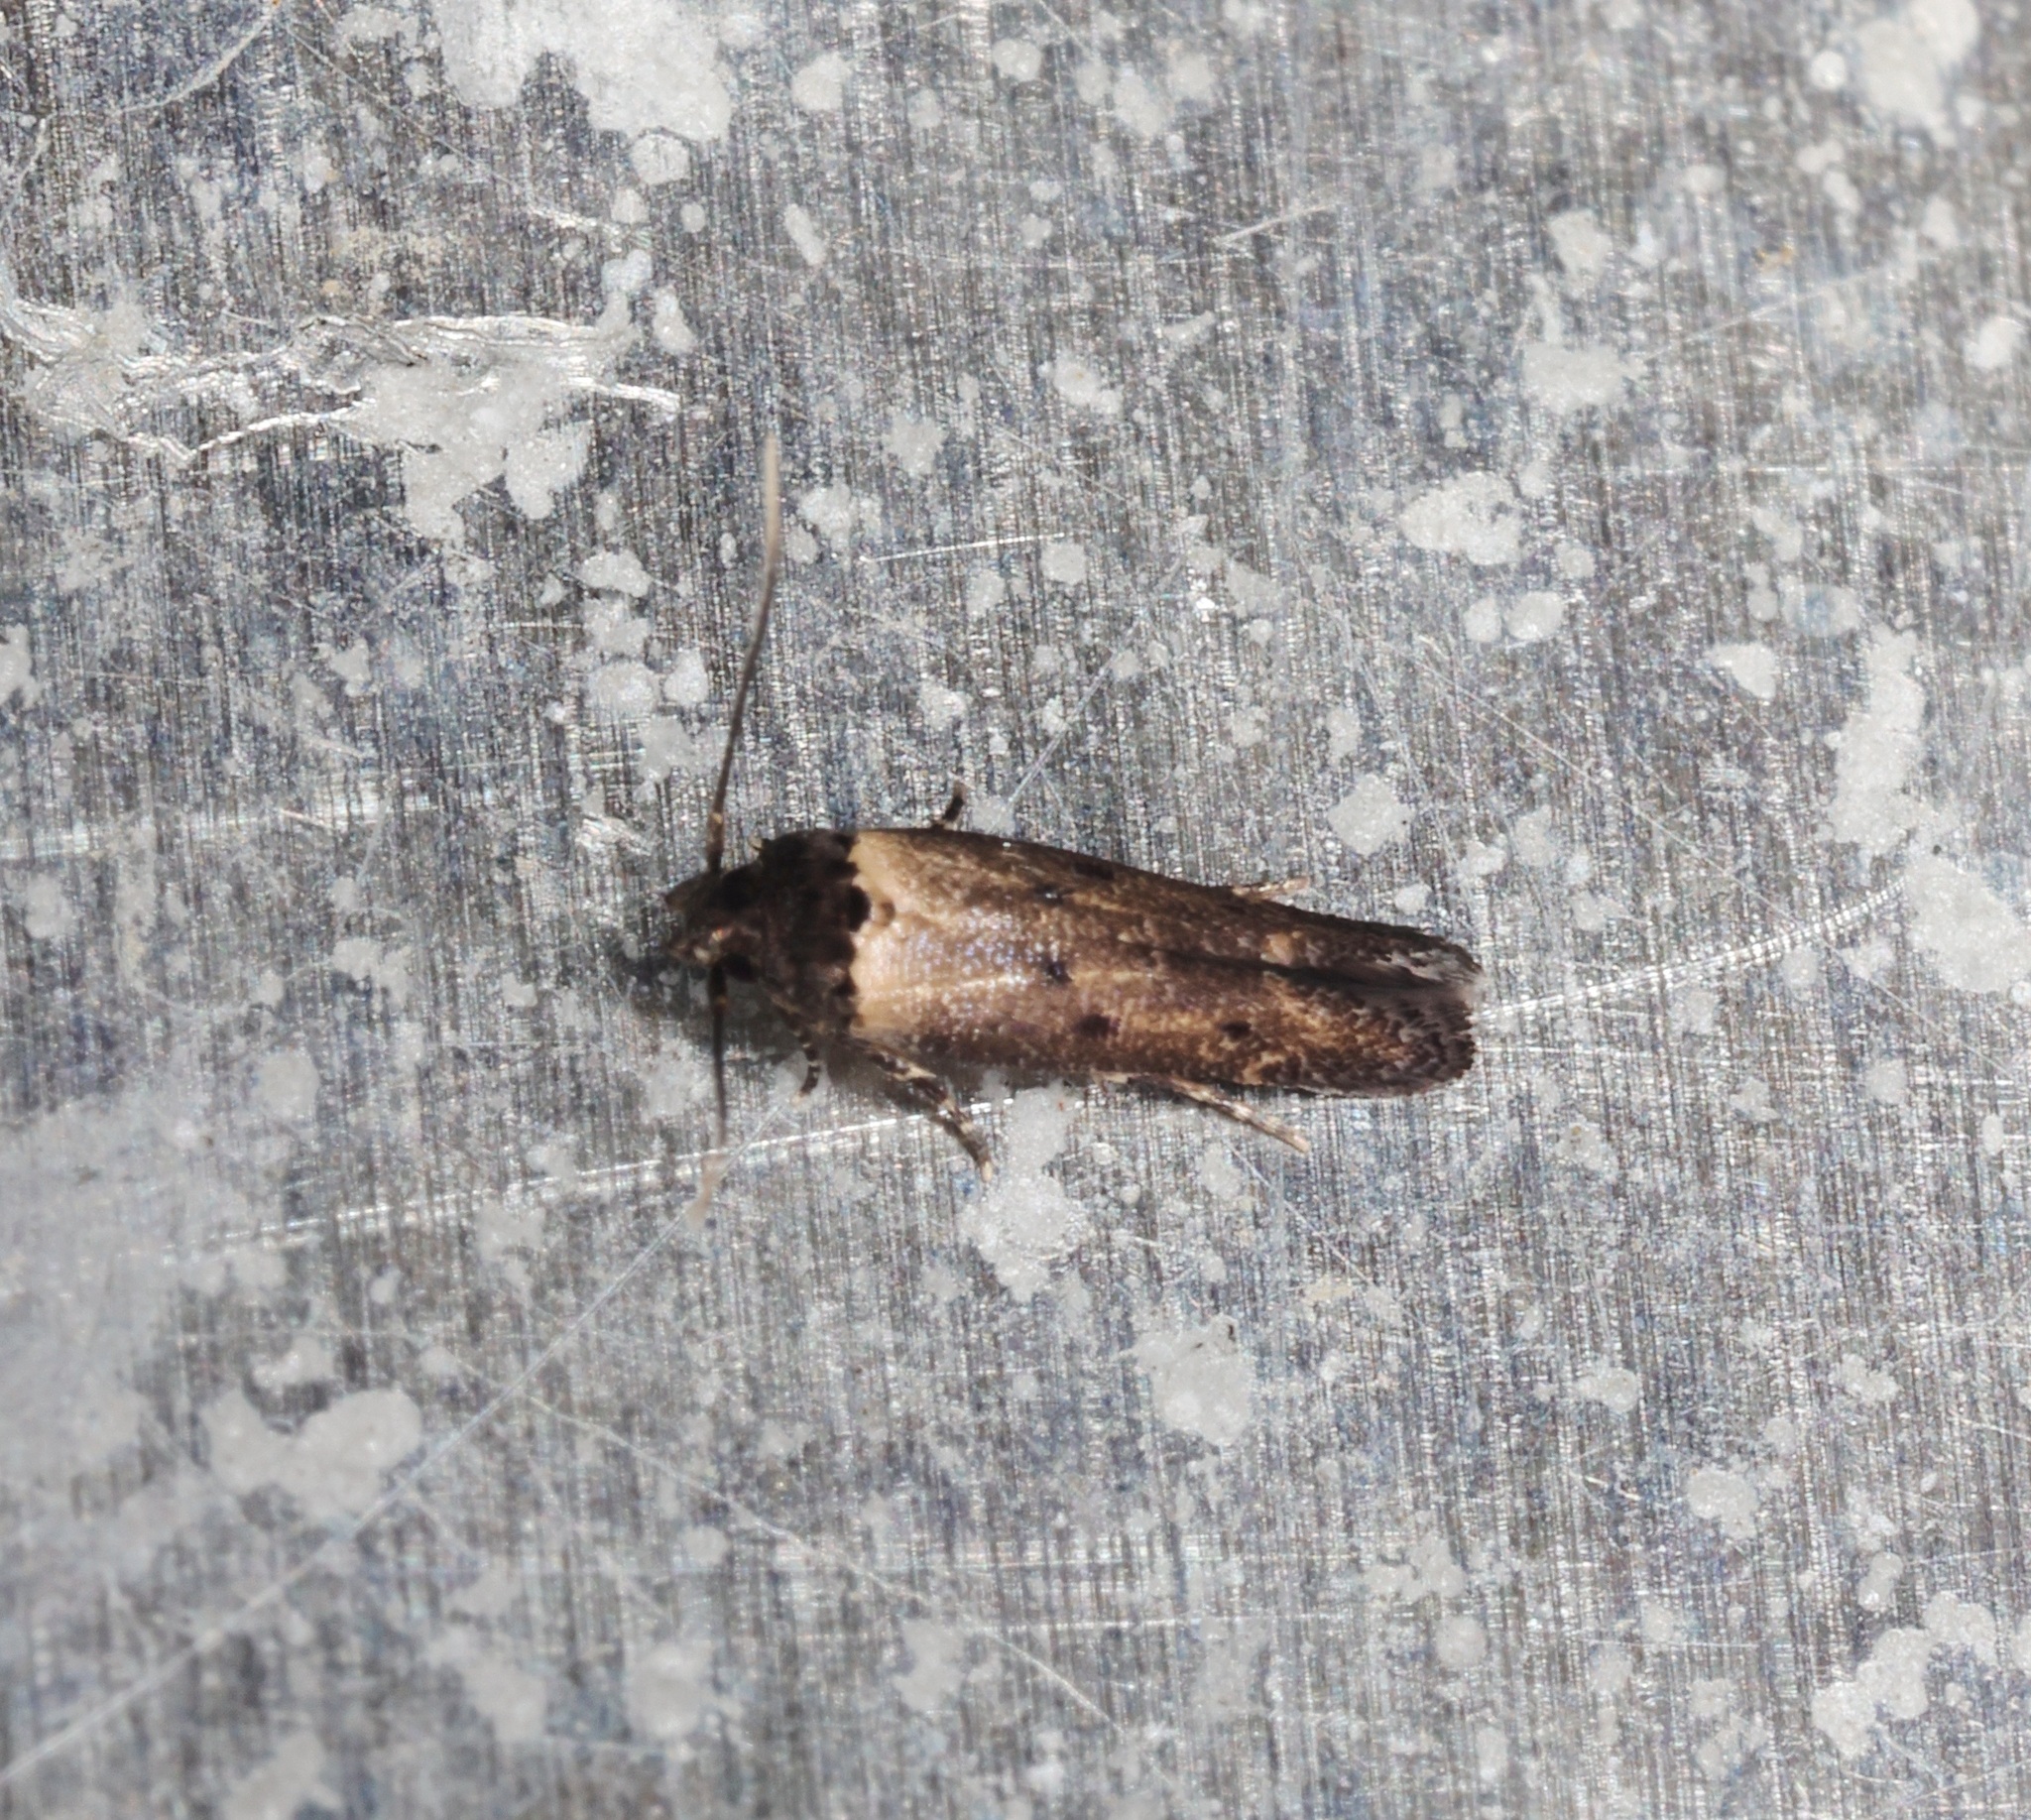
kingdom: Animalia
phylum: Arthropoda
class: Insecta
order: Lepidoptera
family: Cosmopterigidae
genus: Gisilia
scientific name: Gisilia thoracista
